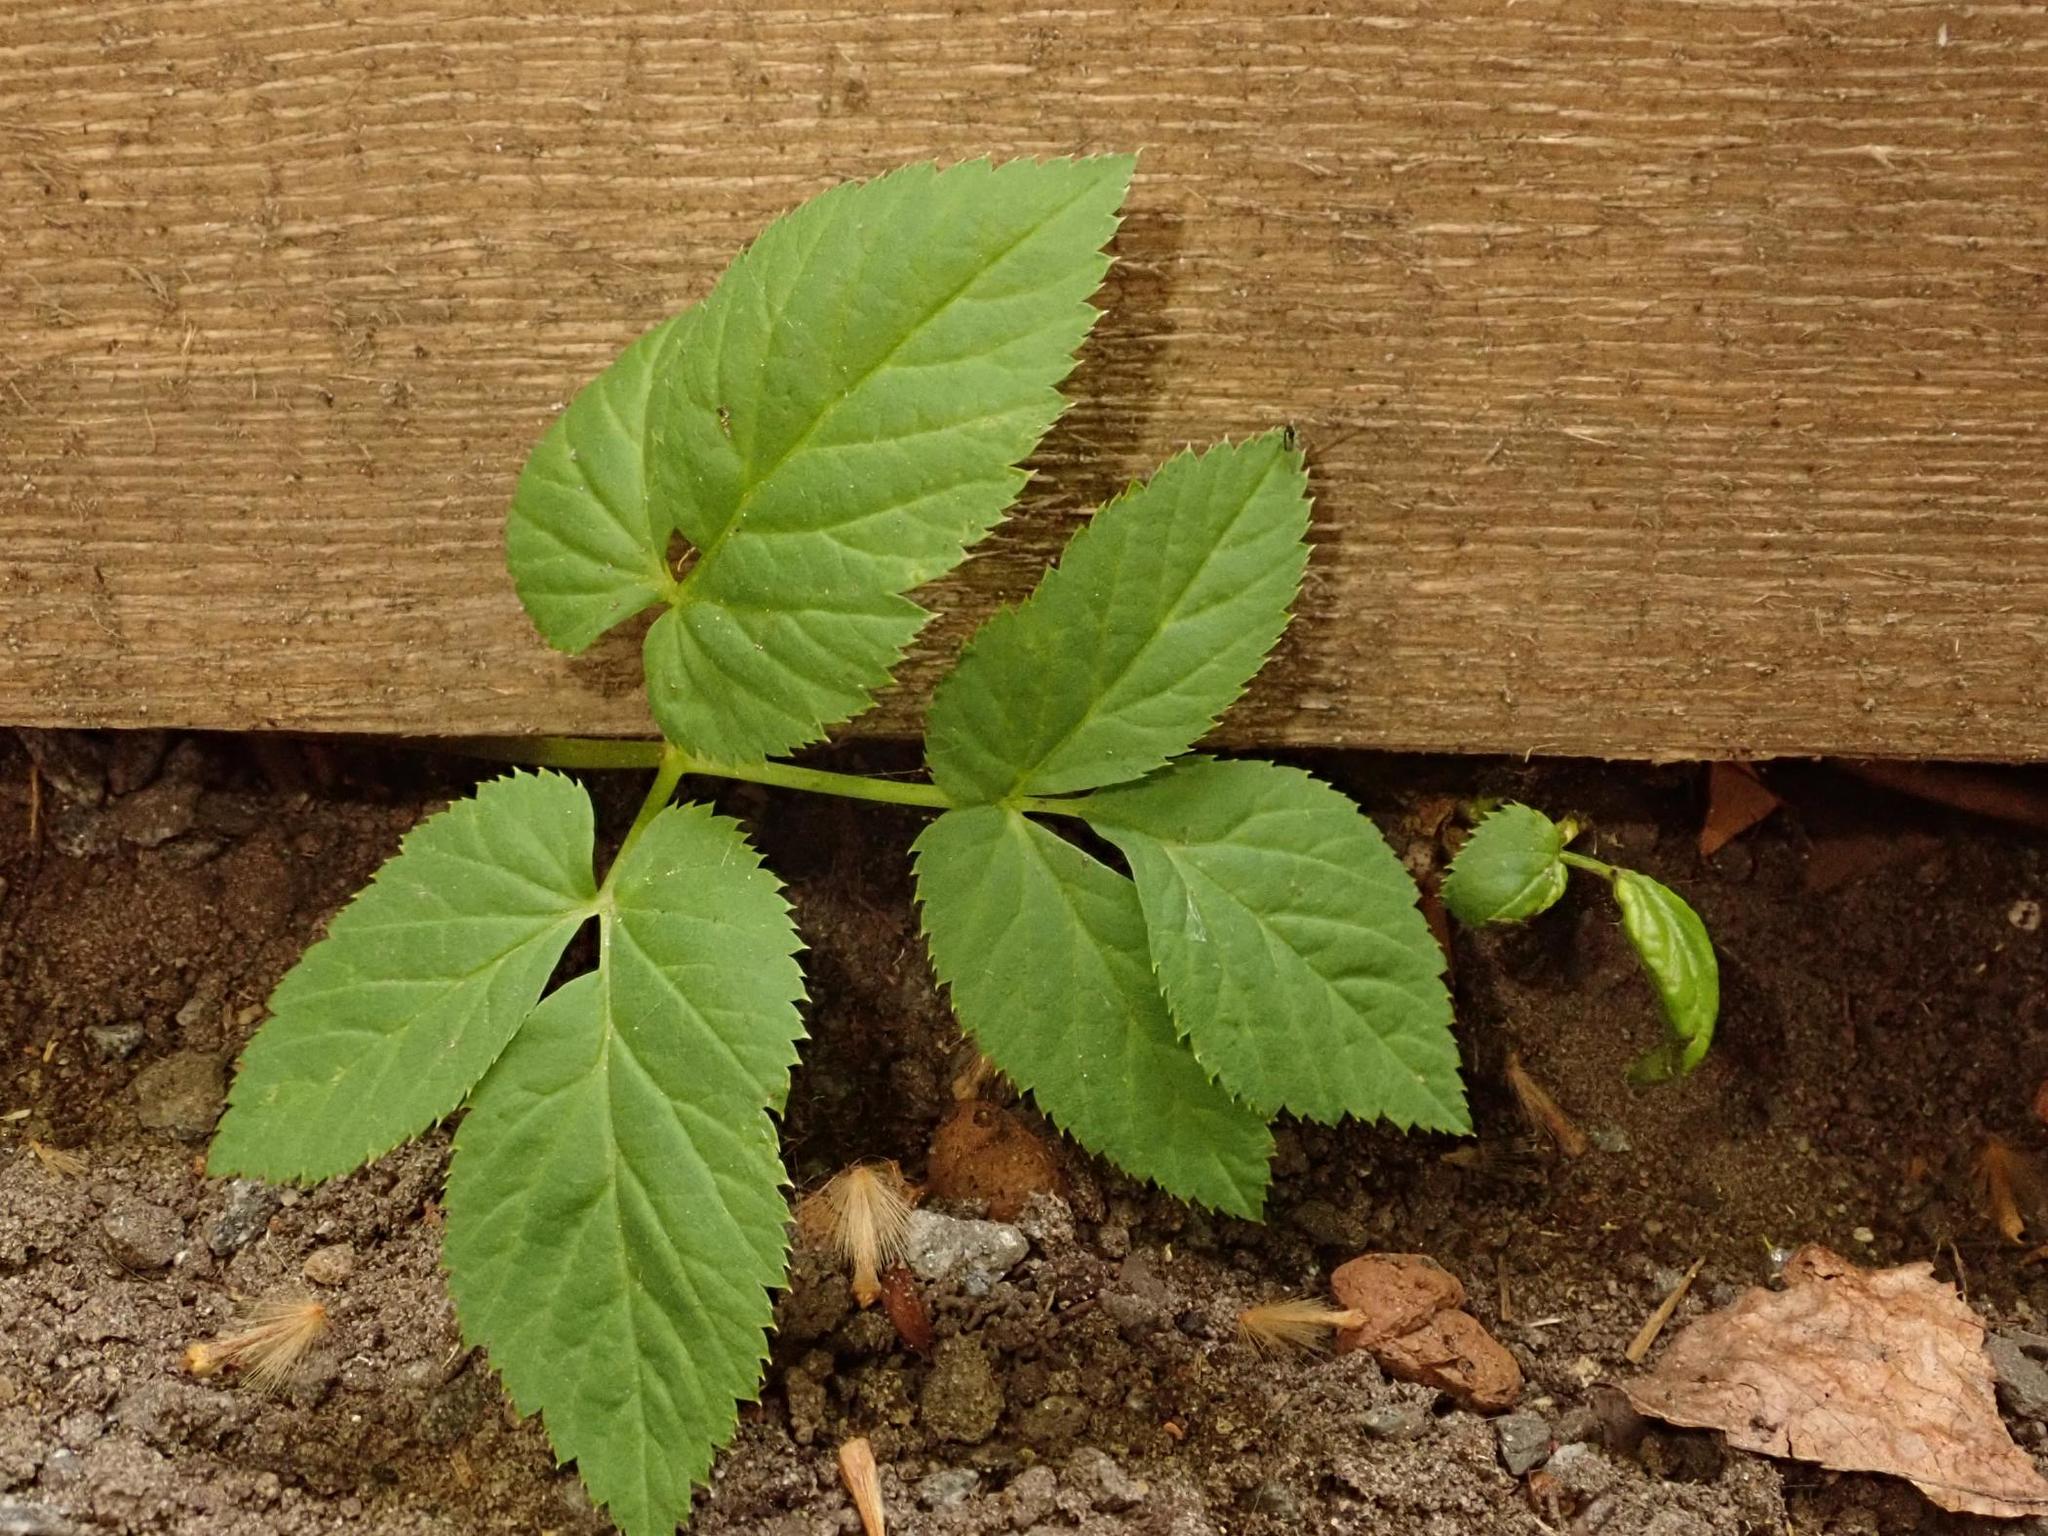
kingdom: Plantae
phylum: Tracheophyta
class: Magnoliopsida
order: Apiales
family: Apiaceae
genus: Aegopodium
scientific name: Aegopodium podagraria
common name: Ground-elder
